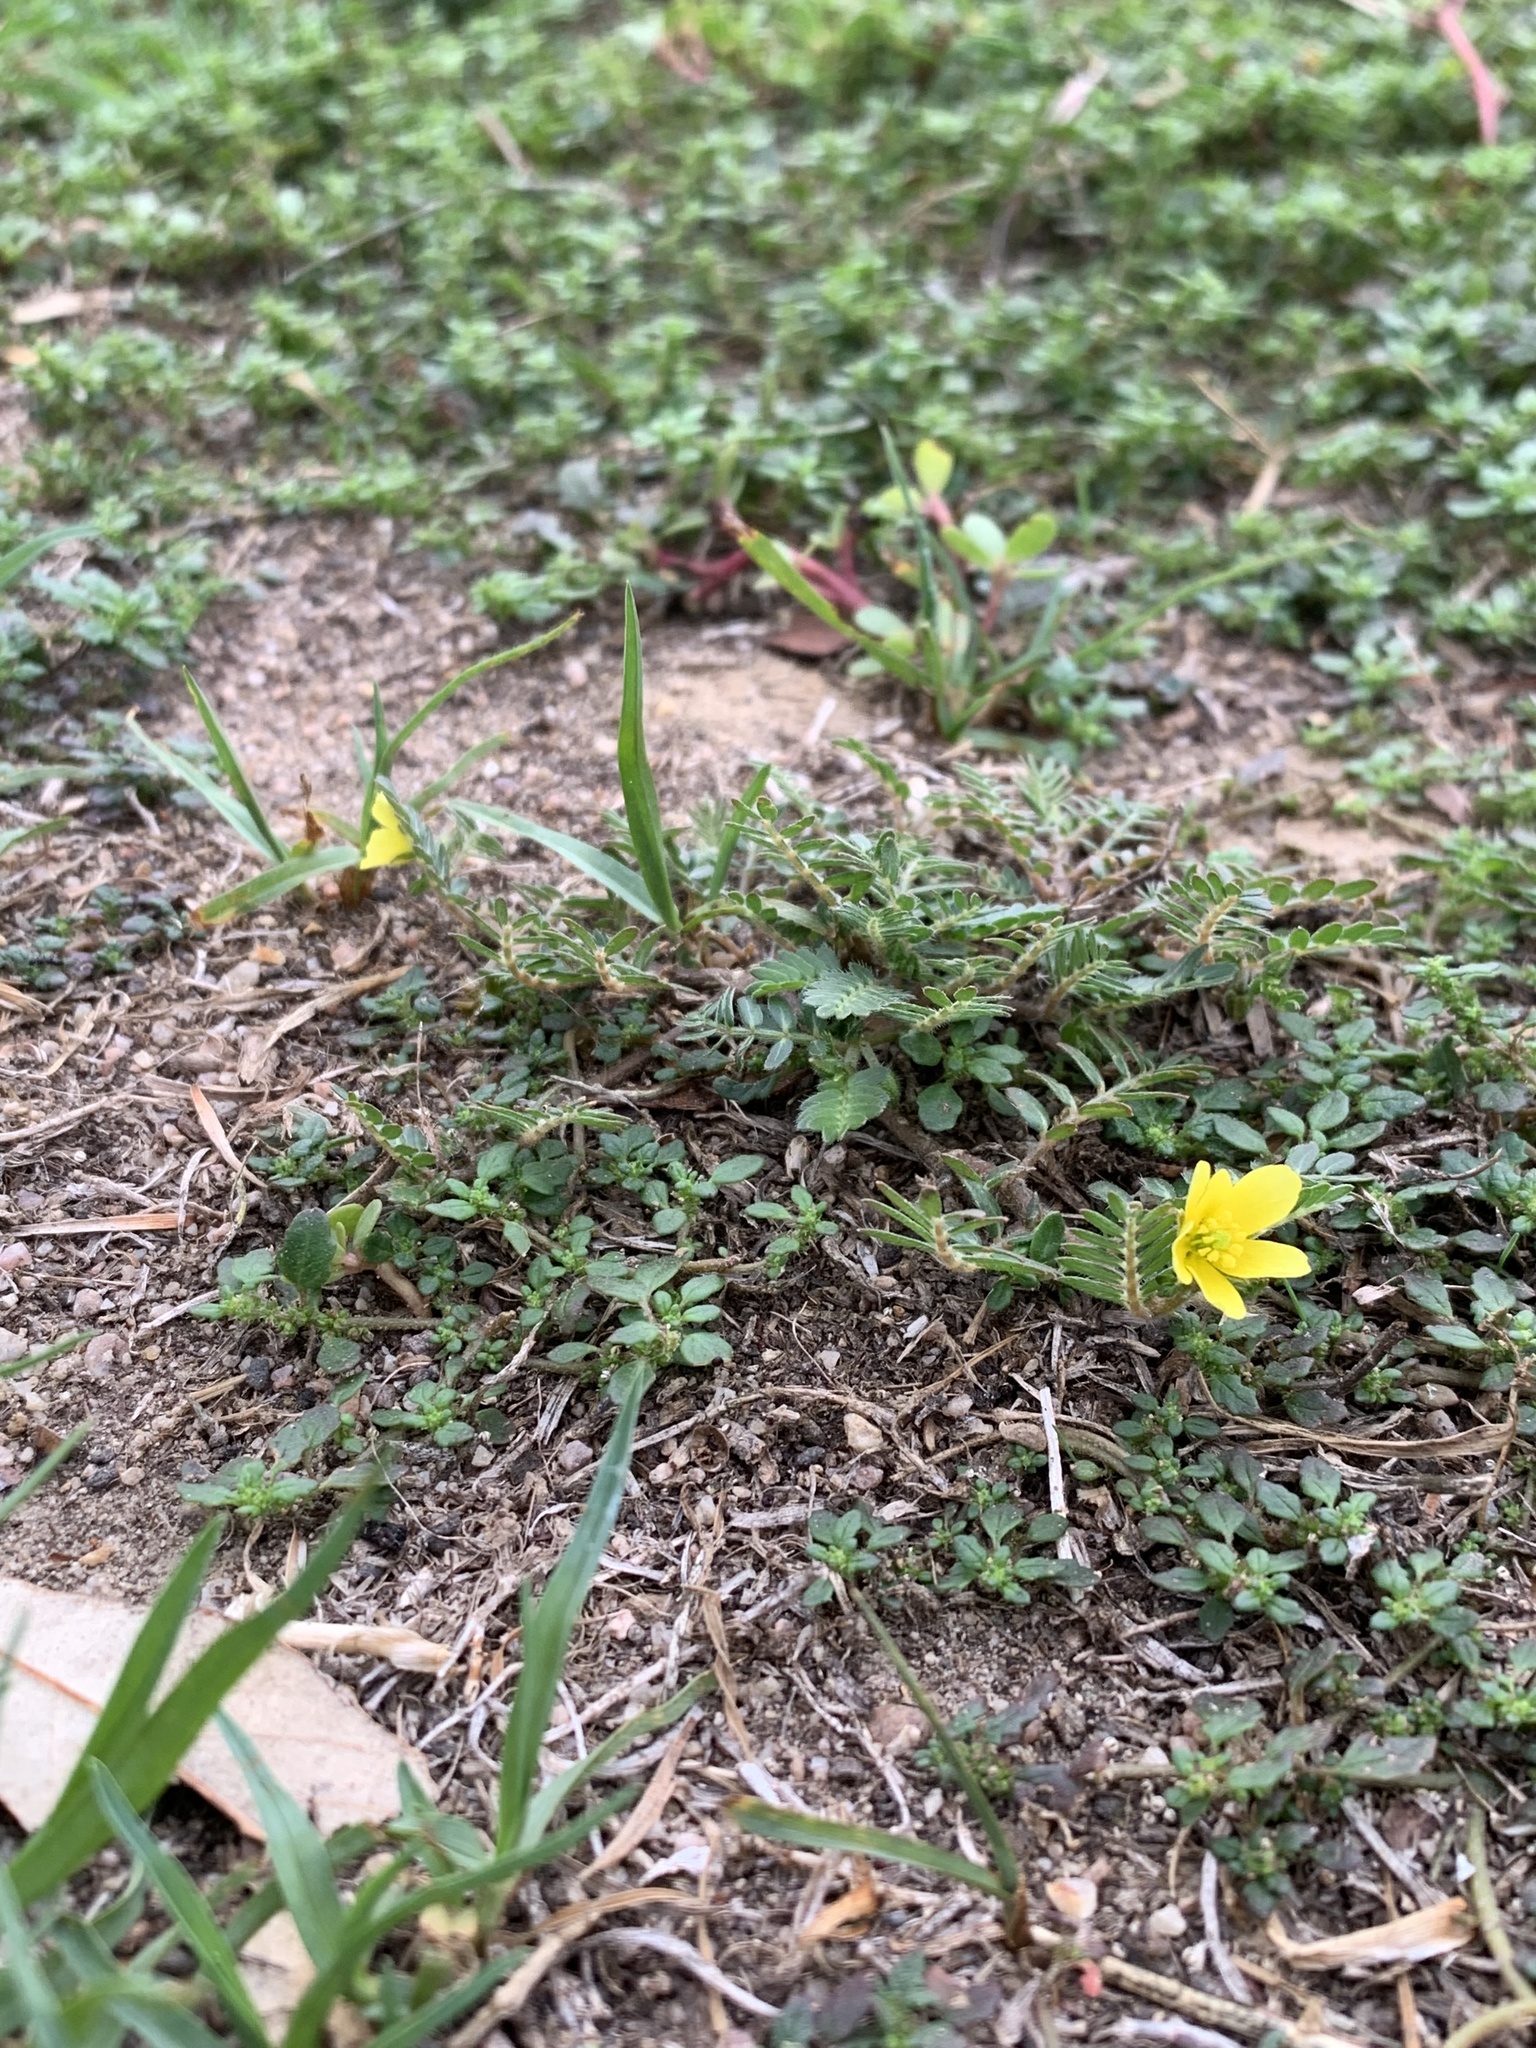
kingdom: Plantae
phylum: Tracheophyta
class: Magnoliopsida
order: Zygophyllales
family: Zygophyllaceae
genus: Tribulus
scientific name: Tribulus terrestris
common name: Puncturevine
